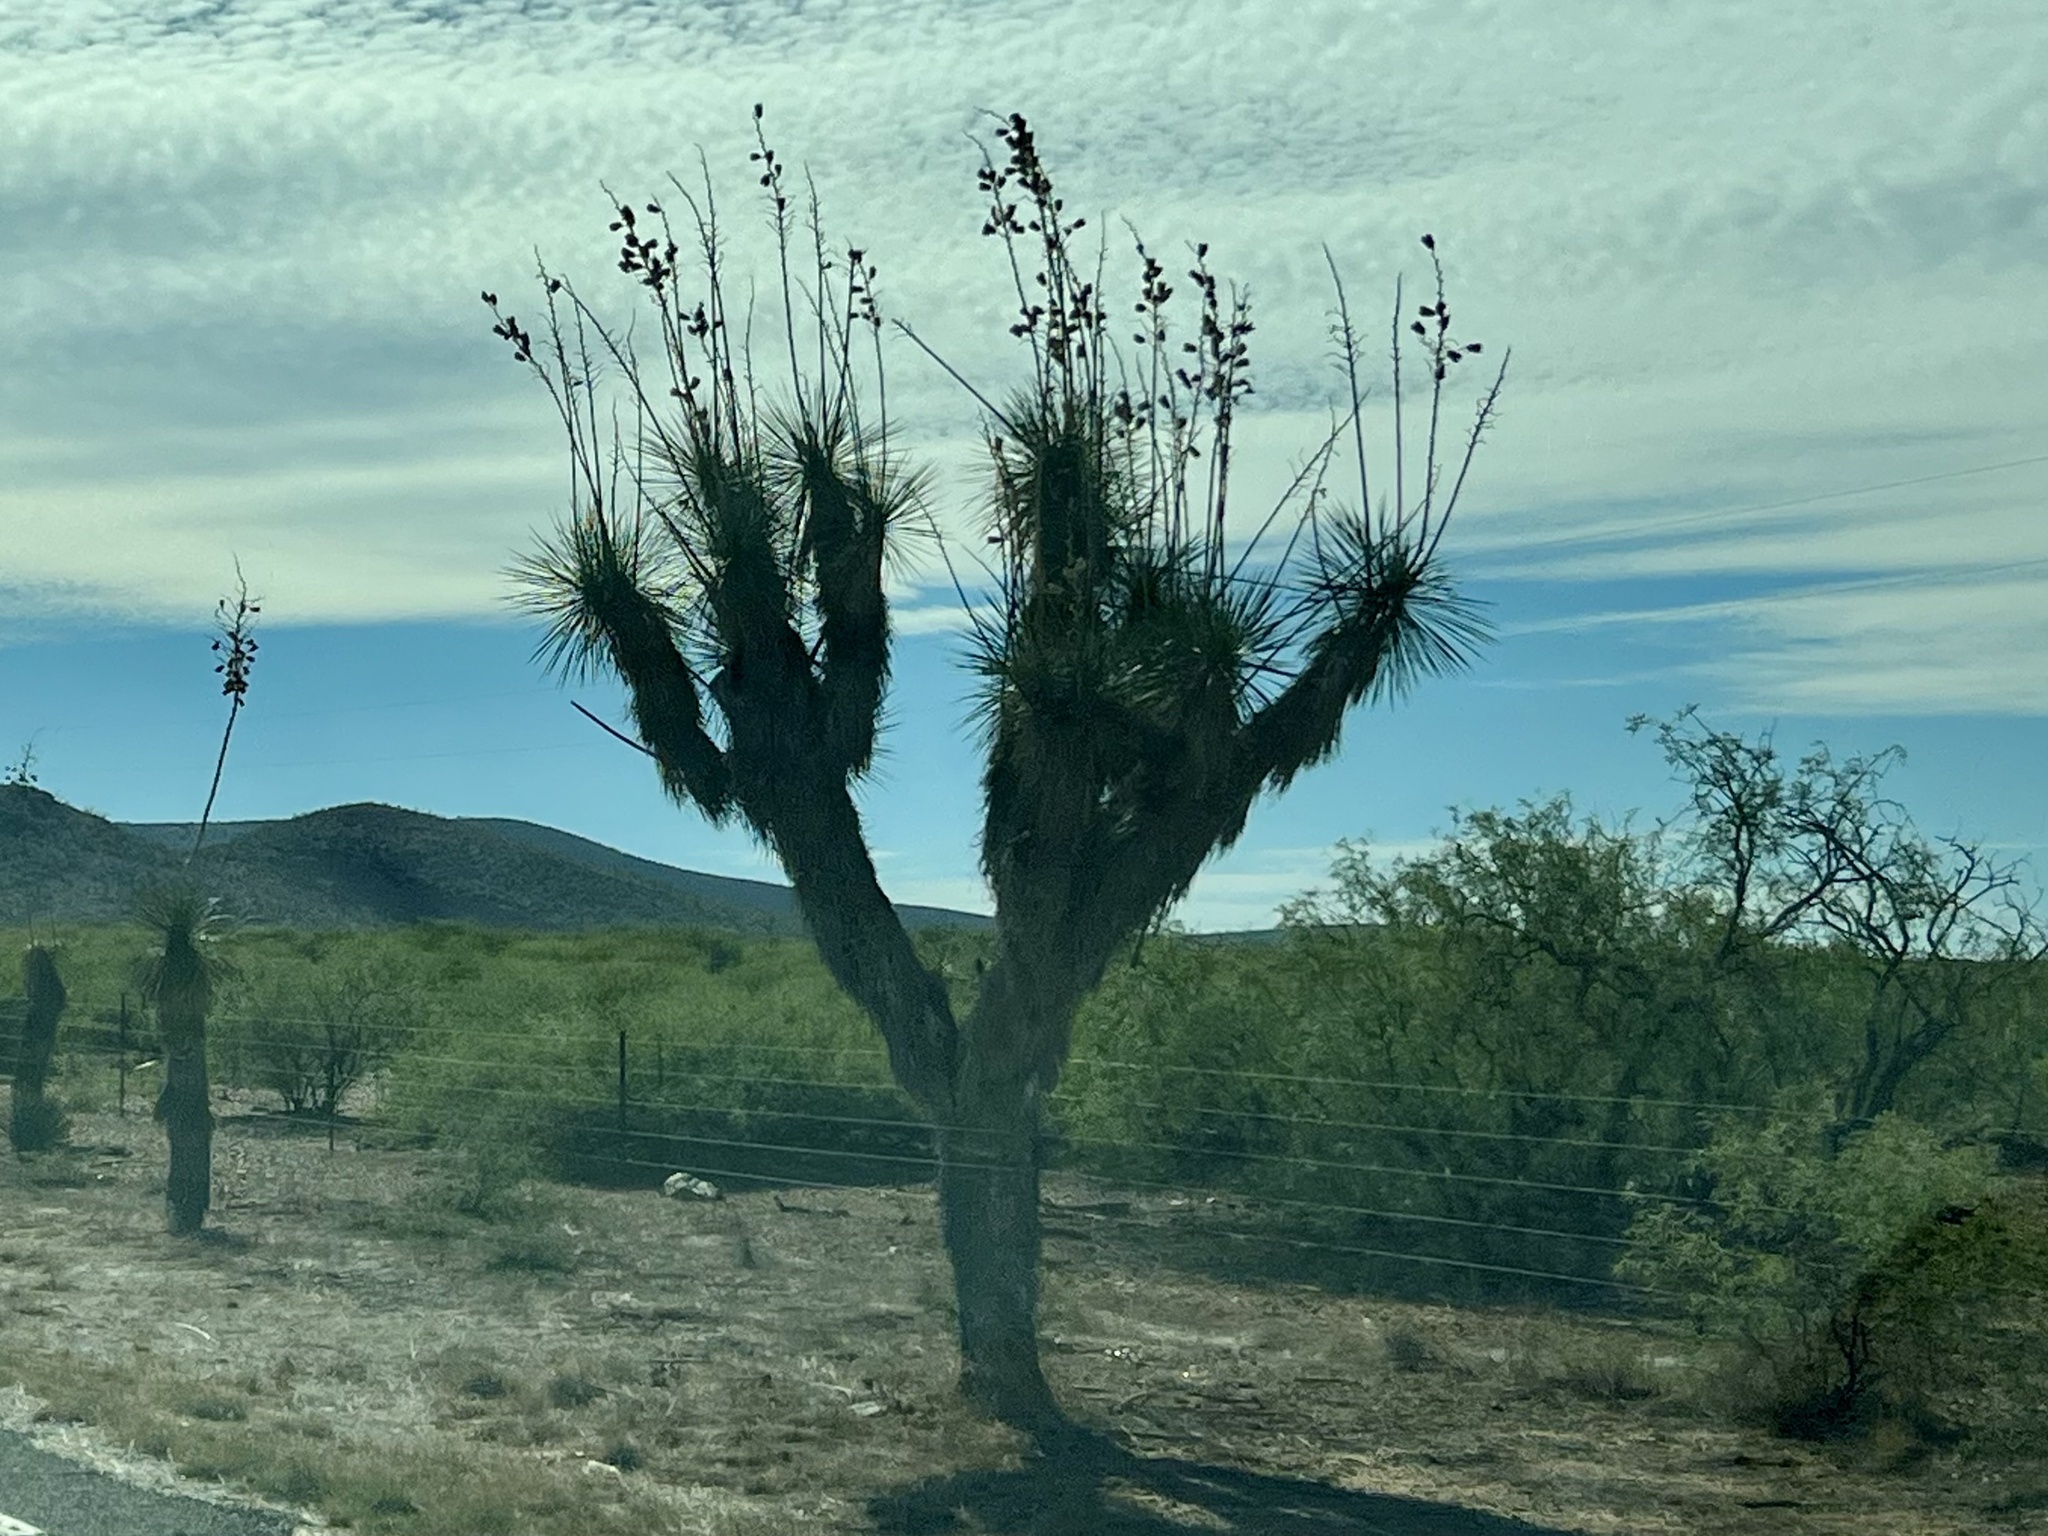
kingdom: Plantae
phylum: Tracheophyta
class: Liliopsida
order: Asparagales
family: Asparagaceae
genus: Yucca
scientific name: Yucca elata
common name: Palmella
